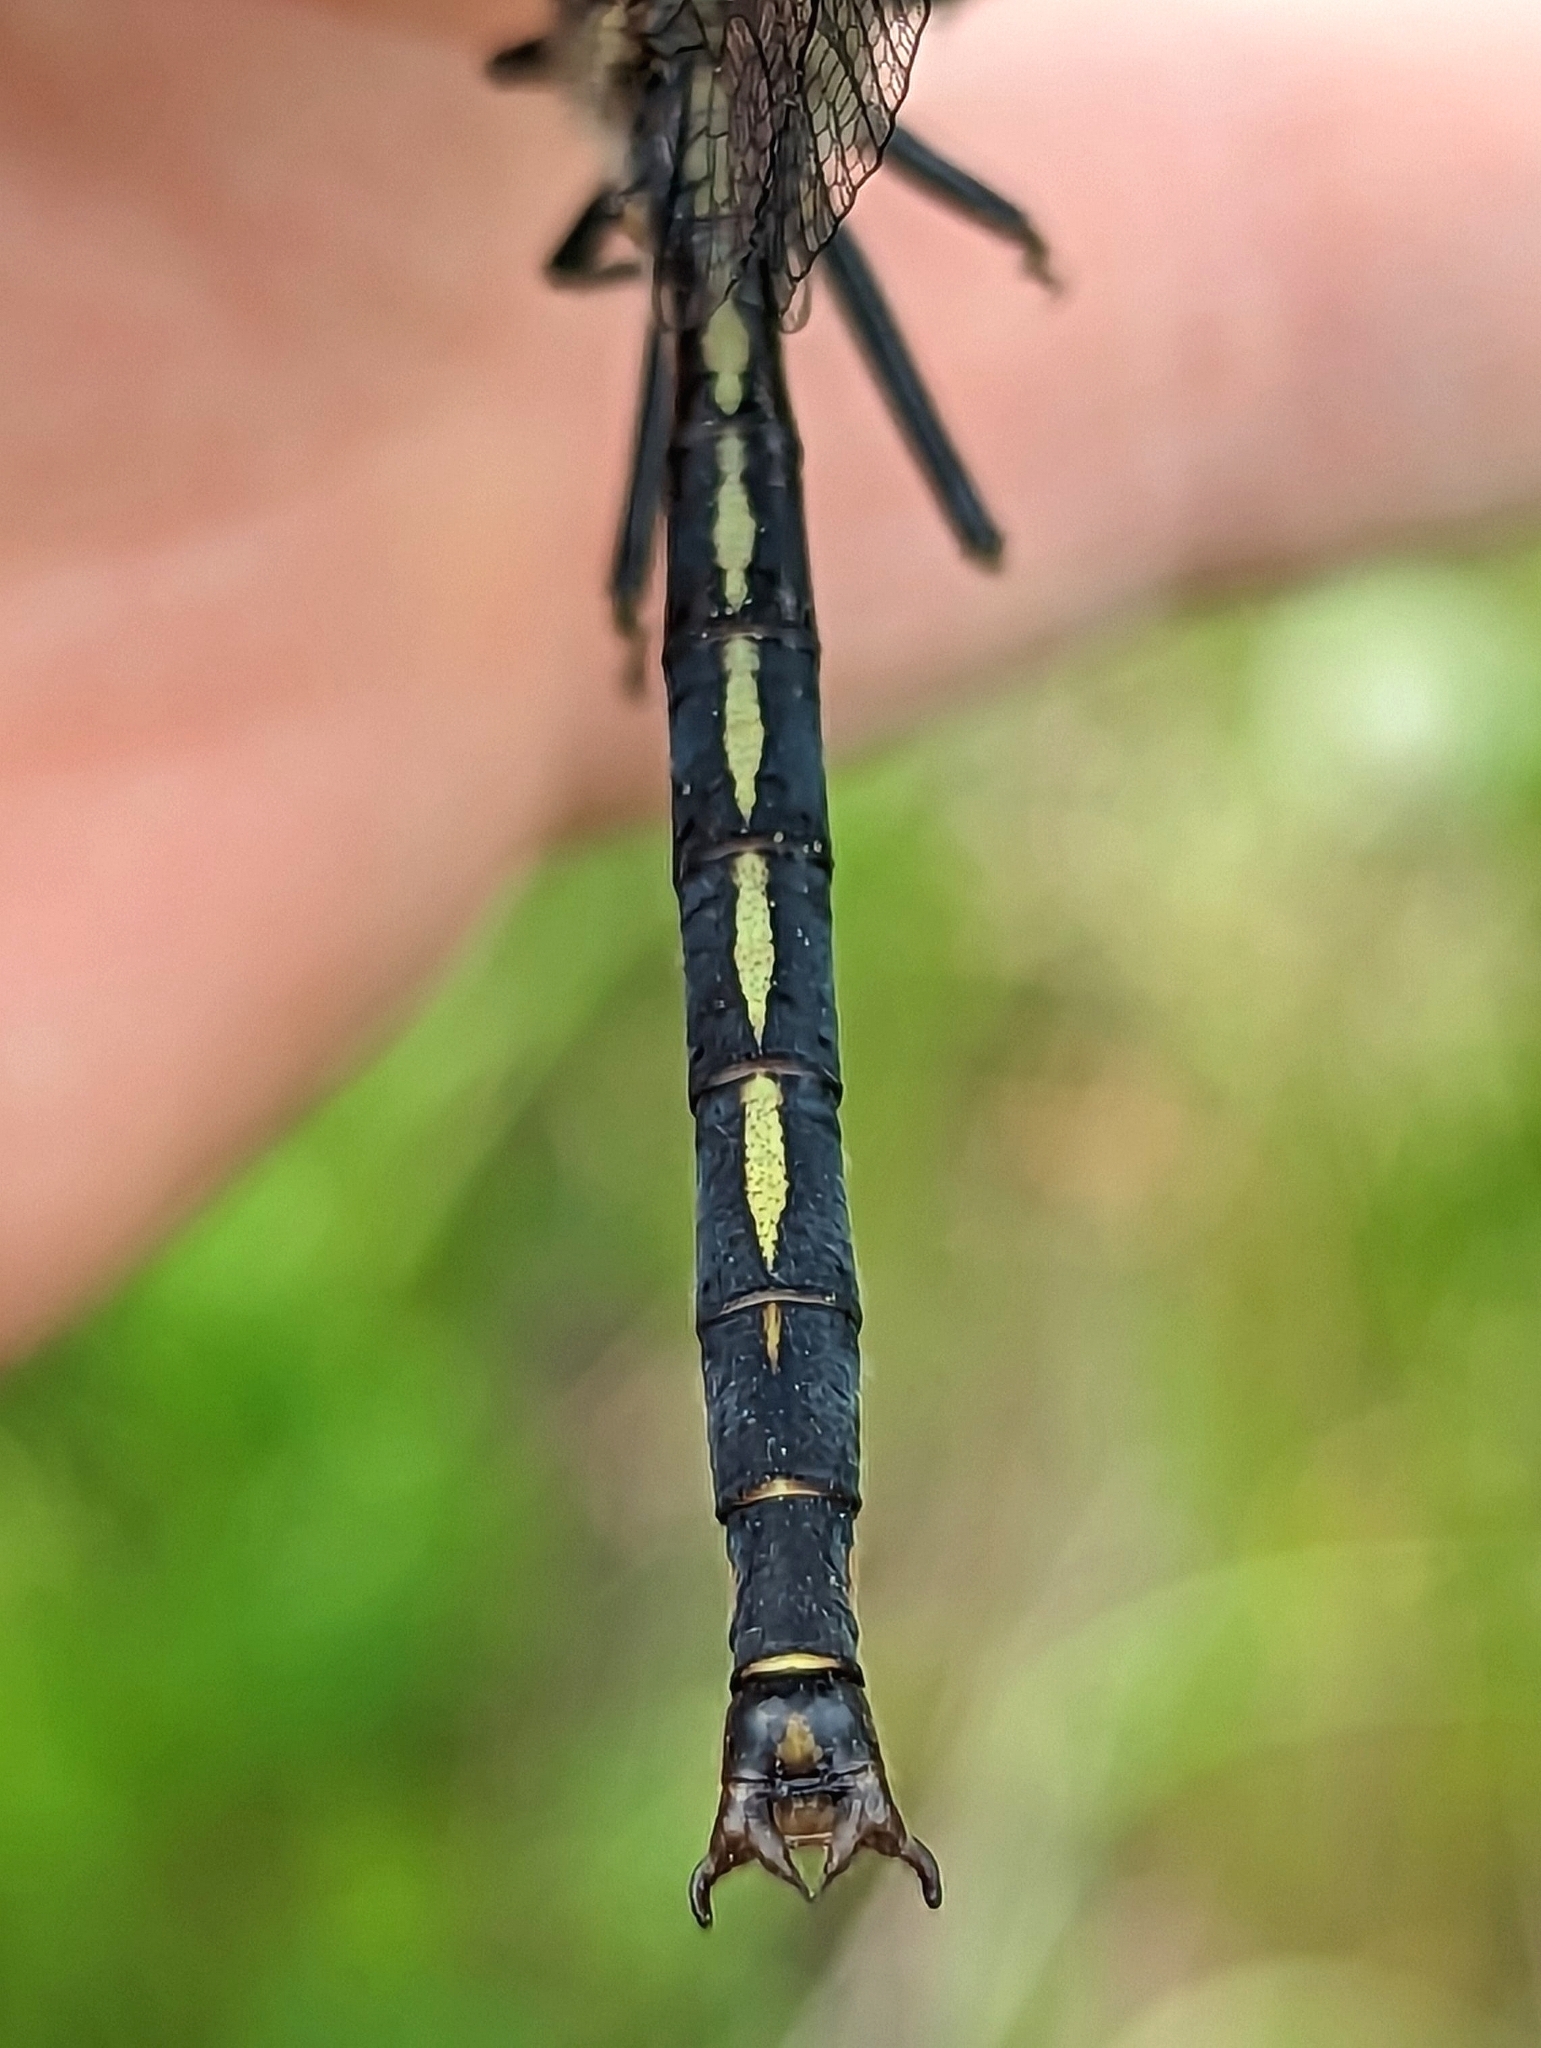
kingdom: Animalia
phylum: Arthropoda
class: Insecta
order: Odonata
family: Gomphidae
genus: Arigomphus
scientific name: Arigomphus cornutus
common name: Horned clubtail
